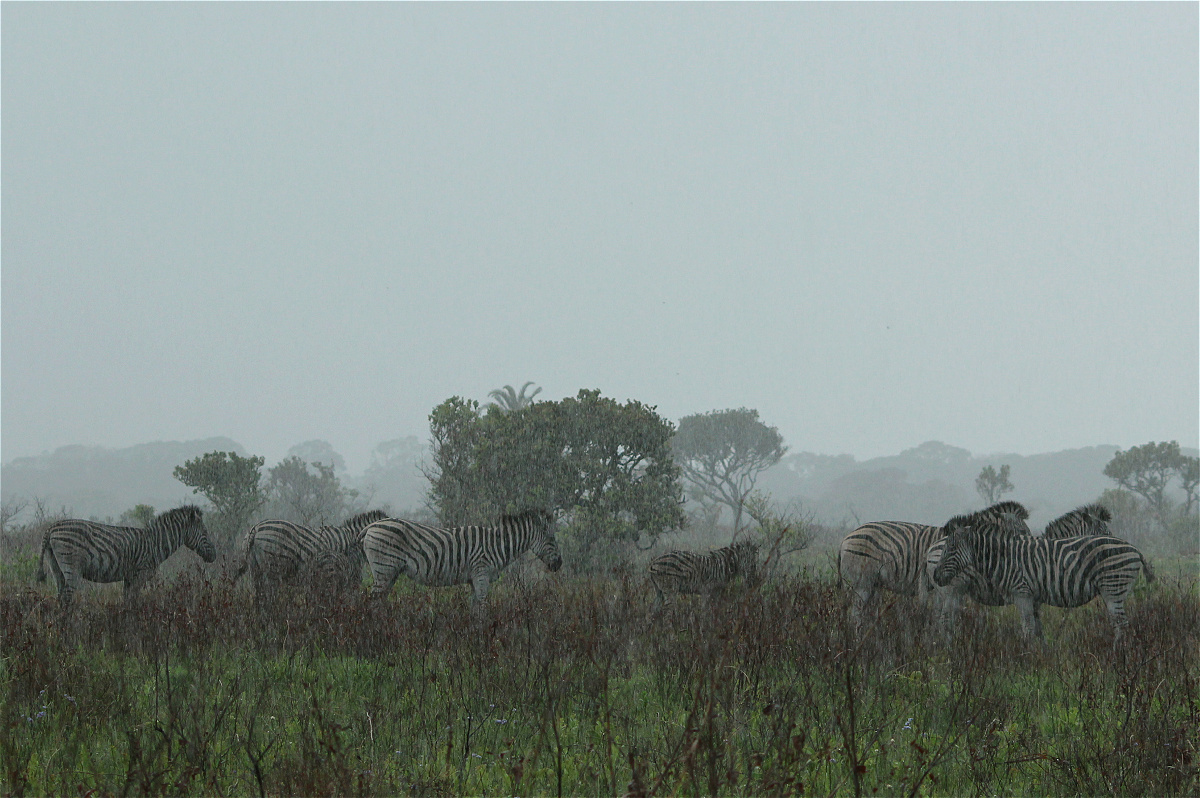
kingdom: Animalia
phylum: Chordata
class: Mammalia
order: Perissodactyla
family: Equidae
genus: Equus
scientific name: Equus quagga
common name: Plains zebra
